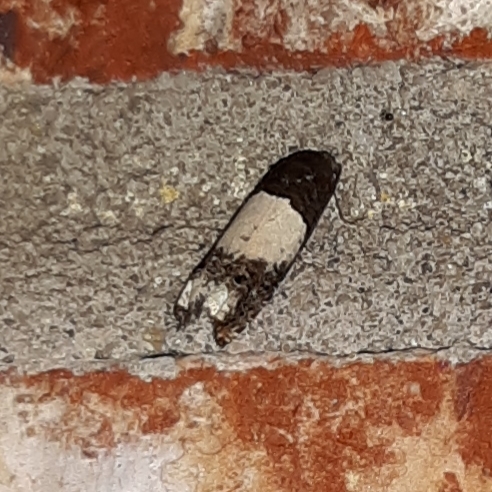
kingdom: Animalia
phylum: Arthropoda
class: Insecta
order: Lepidoptera
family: Tortricidae
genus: Epiblema
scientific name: Epiblema scudderiana
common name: Goldenrod gall moth
